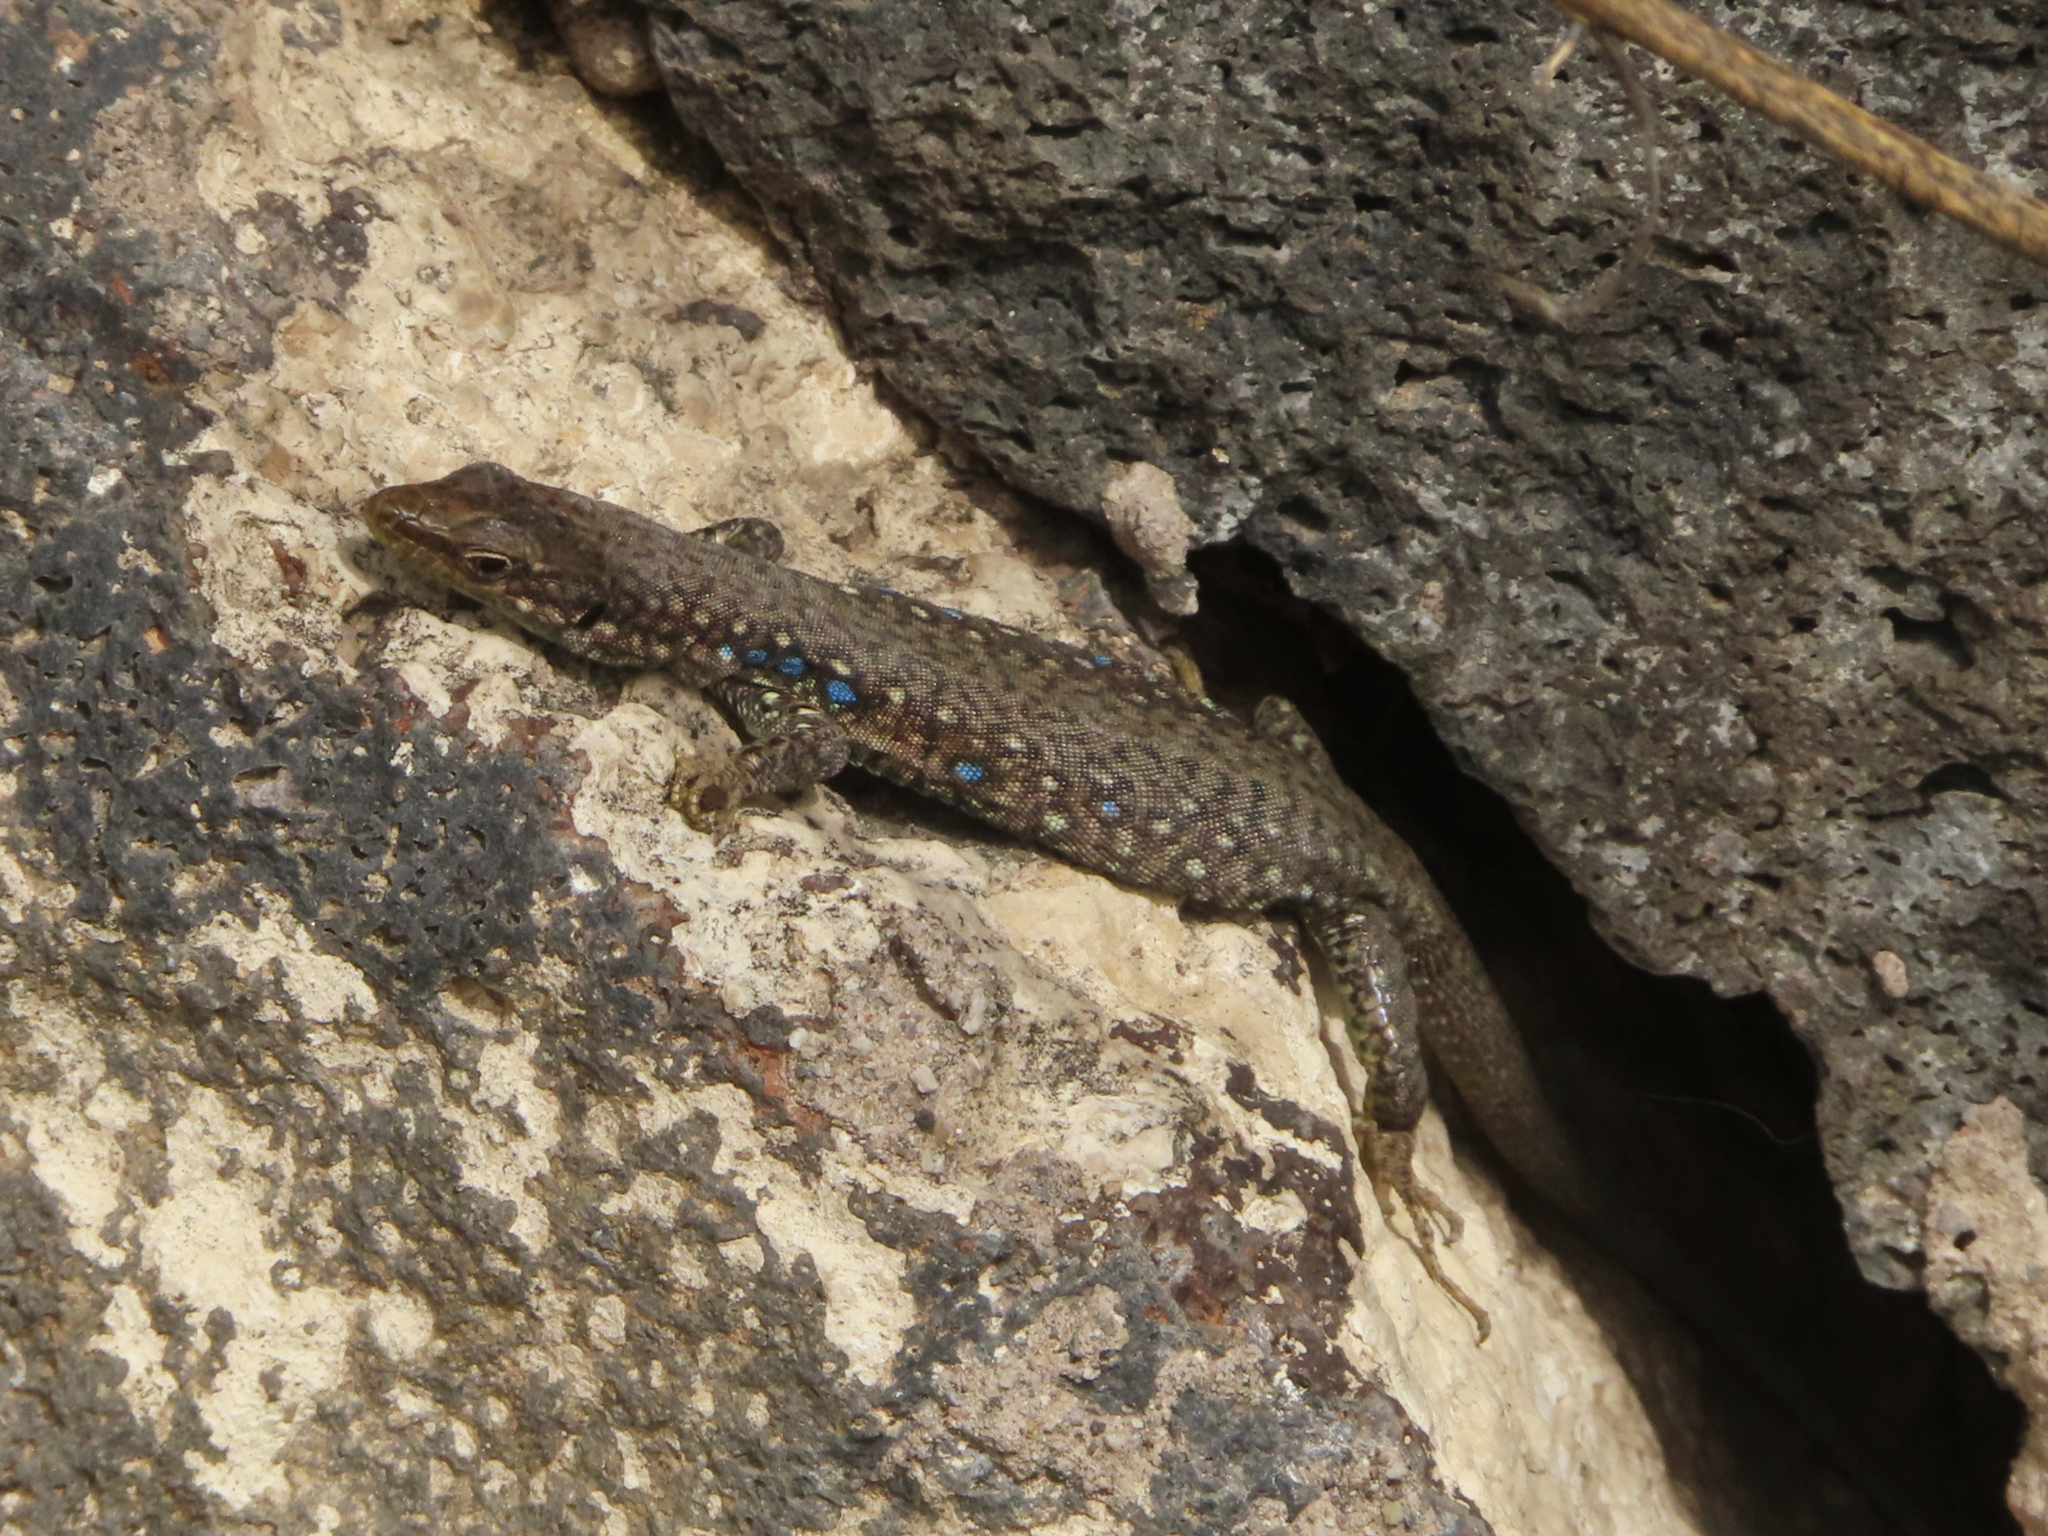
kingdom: Animalia
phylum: Chordata
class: Squamata
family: Lacertidae
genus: Darevskia
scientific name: Darevskia
